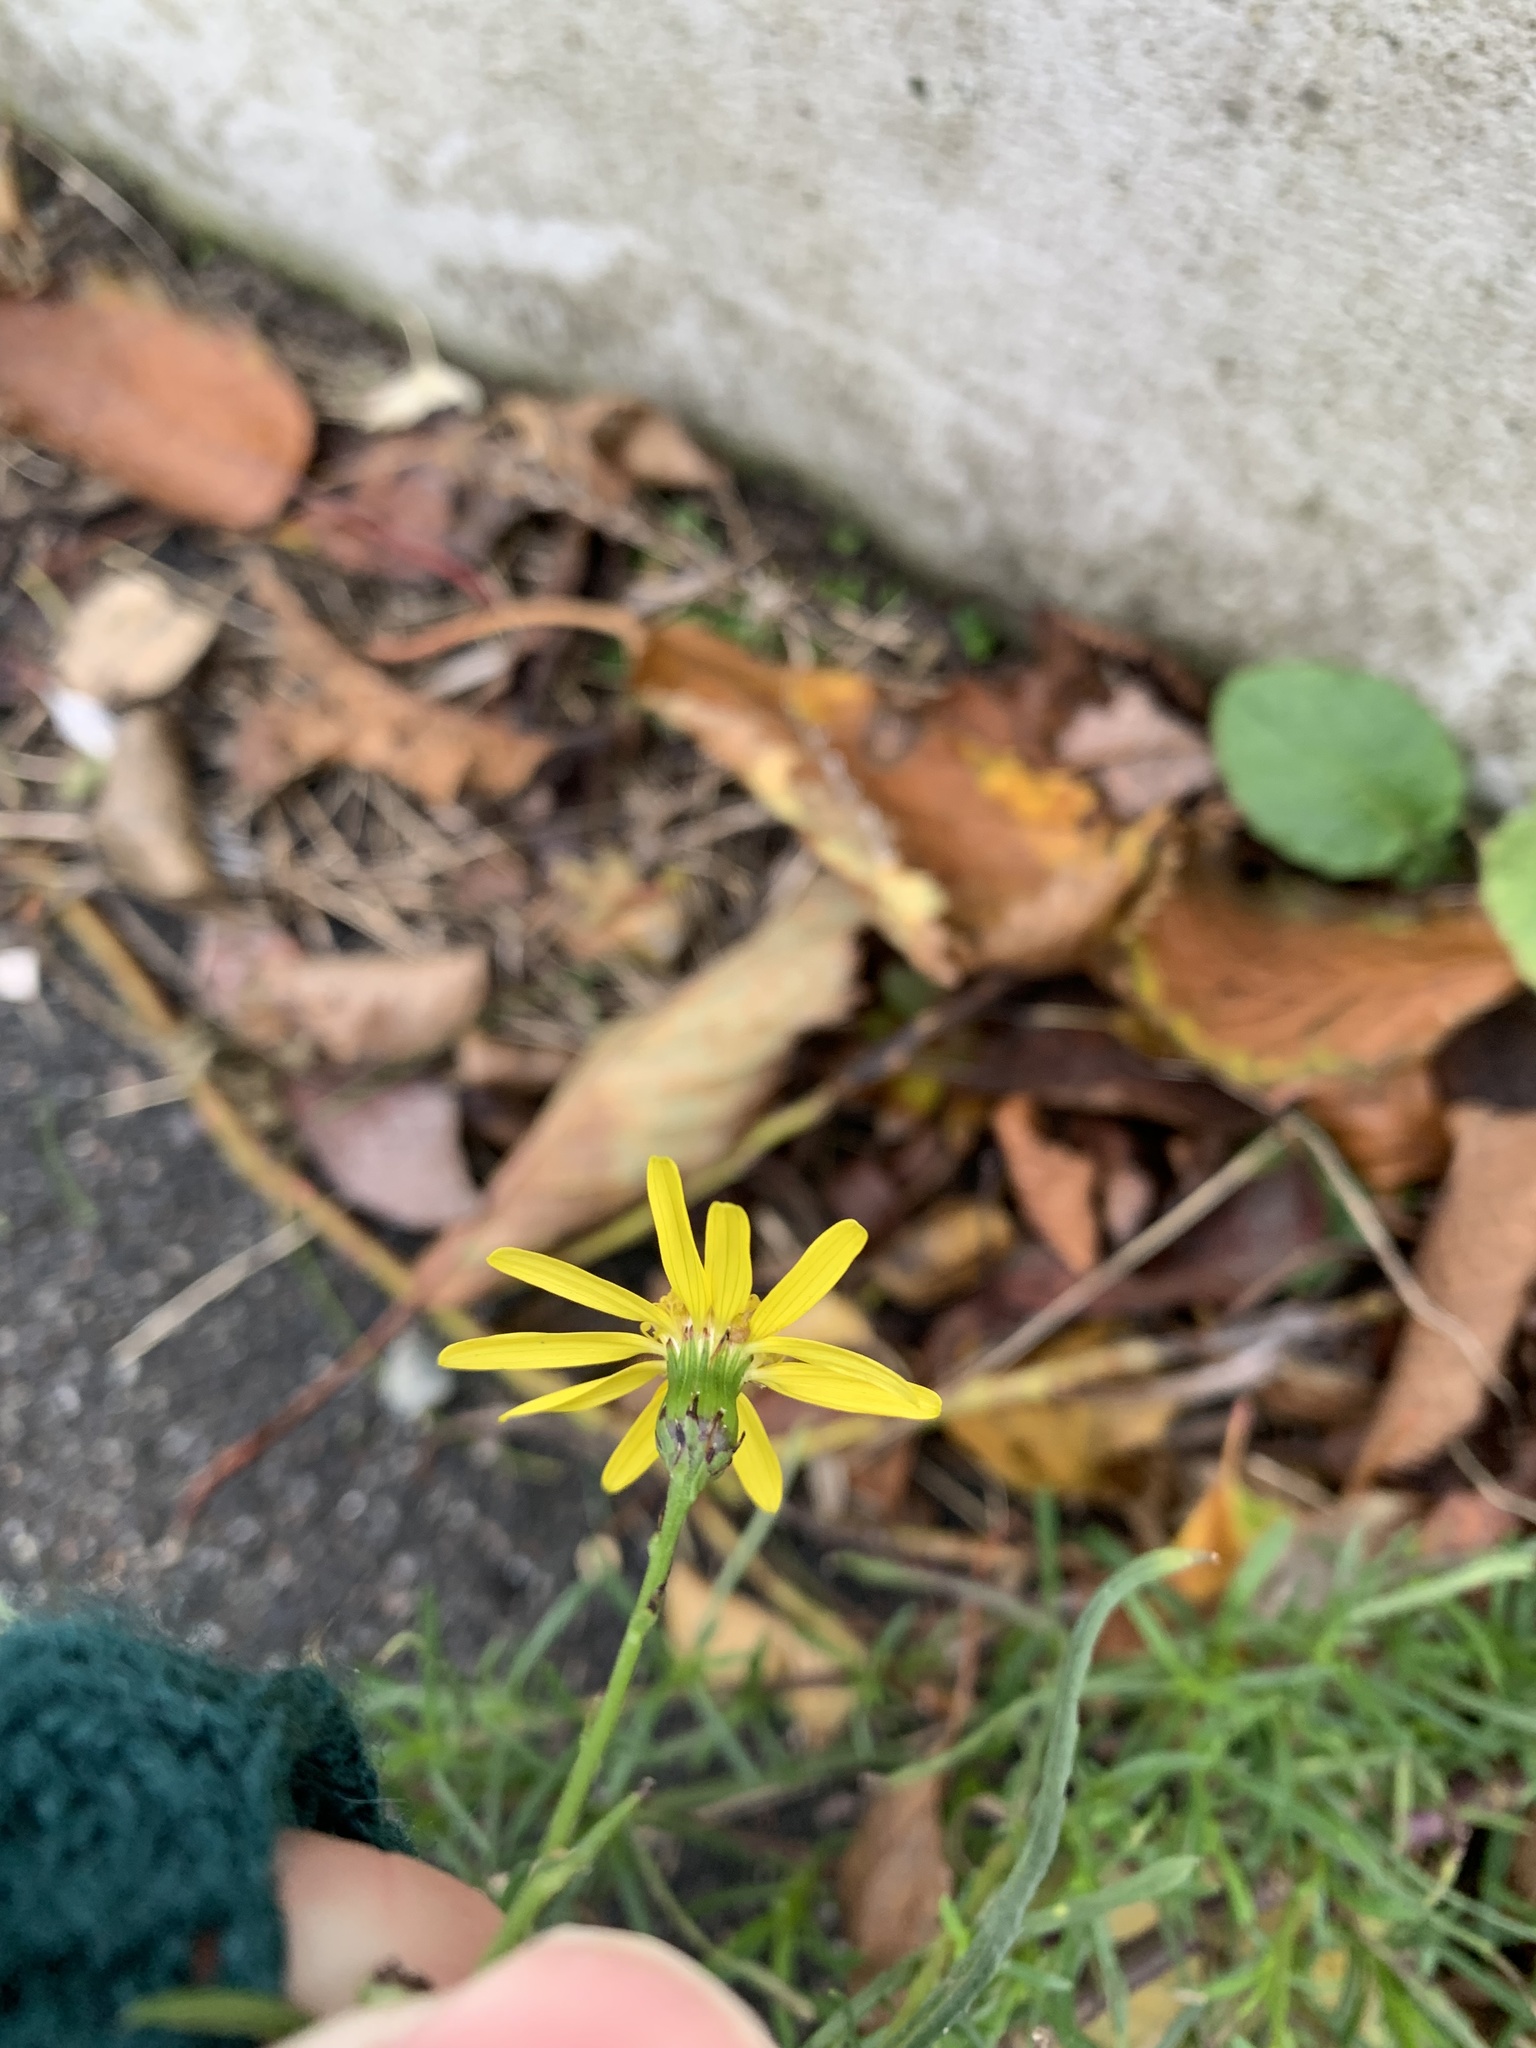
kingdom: Plantae
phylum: Tracheophyta
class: Magnoliopsida
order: Asterales
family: Asteraceae
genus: Senecio
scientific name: Senecio inaequidens
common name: Narrow-leaved ragwort
